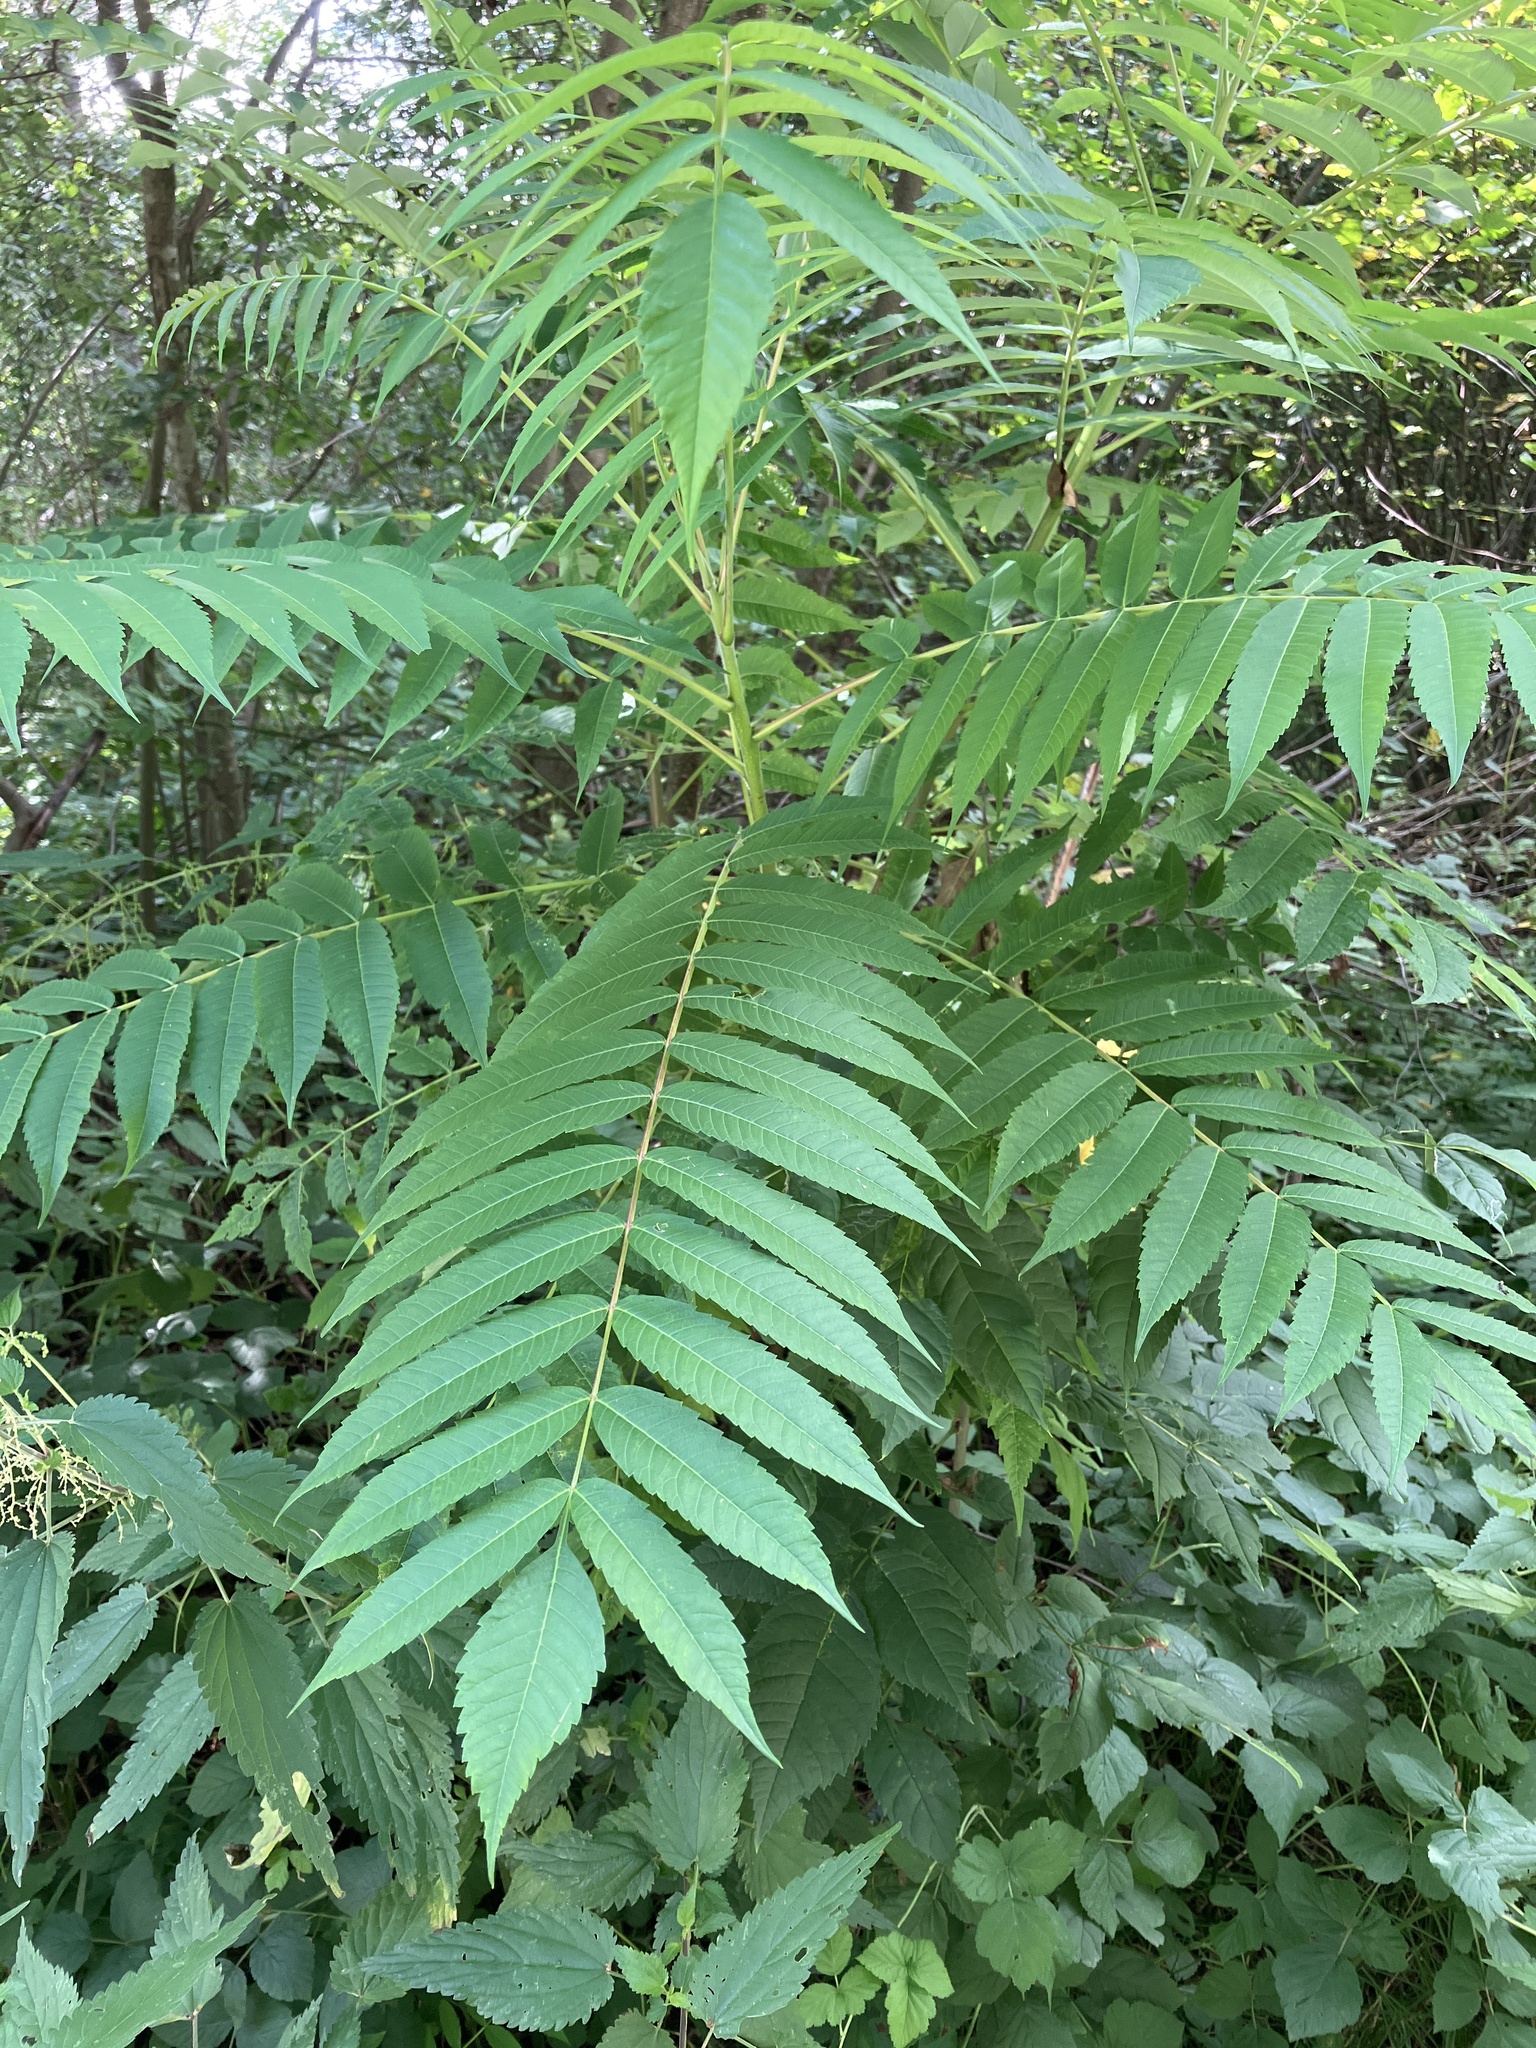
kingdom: Plantae
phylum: Tracheophyta
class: Magnoliopsida
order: Sapindales
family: Anacardiaceae
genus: Rhus
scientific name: Rhus typhina
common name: Staghorn sumac
